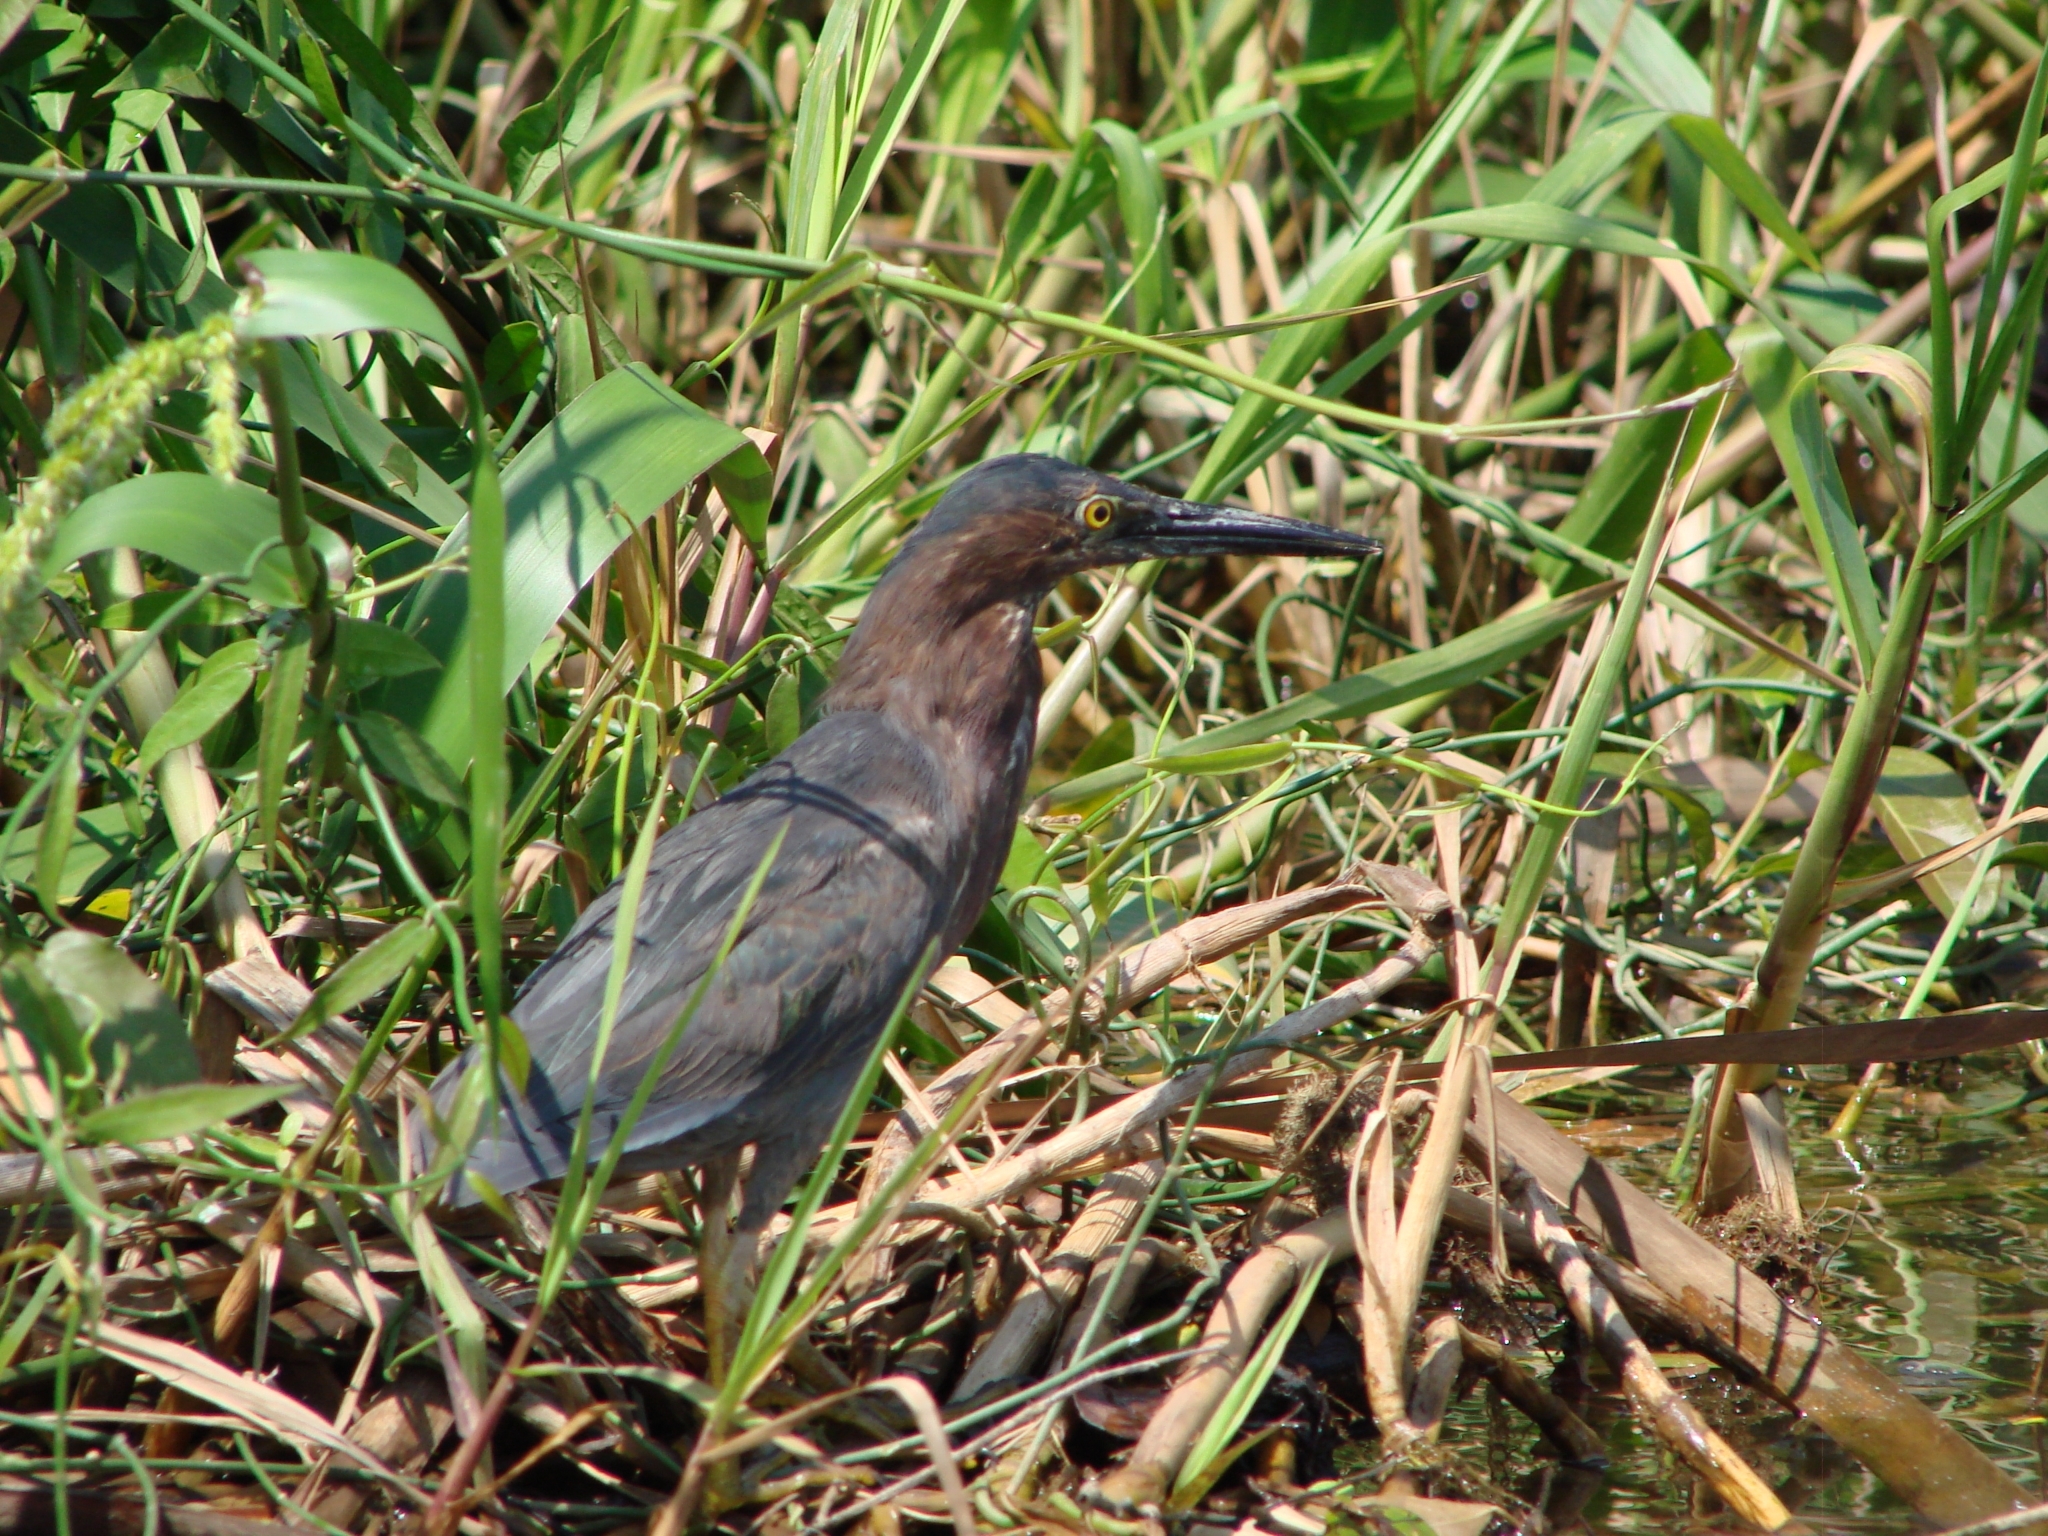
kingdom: Animalia
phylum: Chordata
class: Aves
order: Pelecaniformes
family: Ardeidae
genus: Butorides
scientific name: Butorides virescens
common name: Green heron
